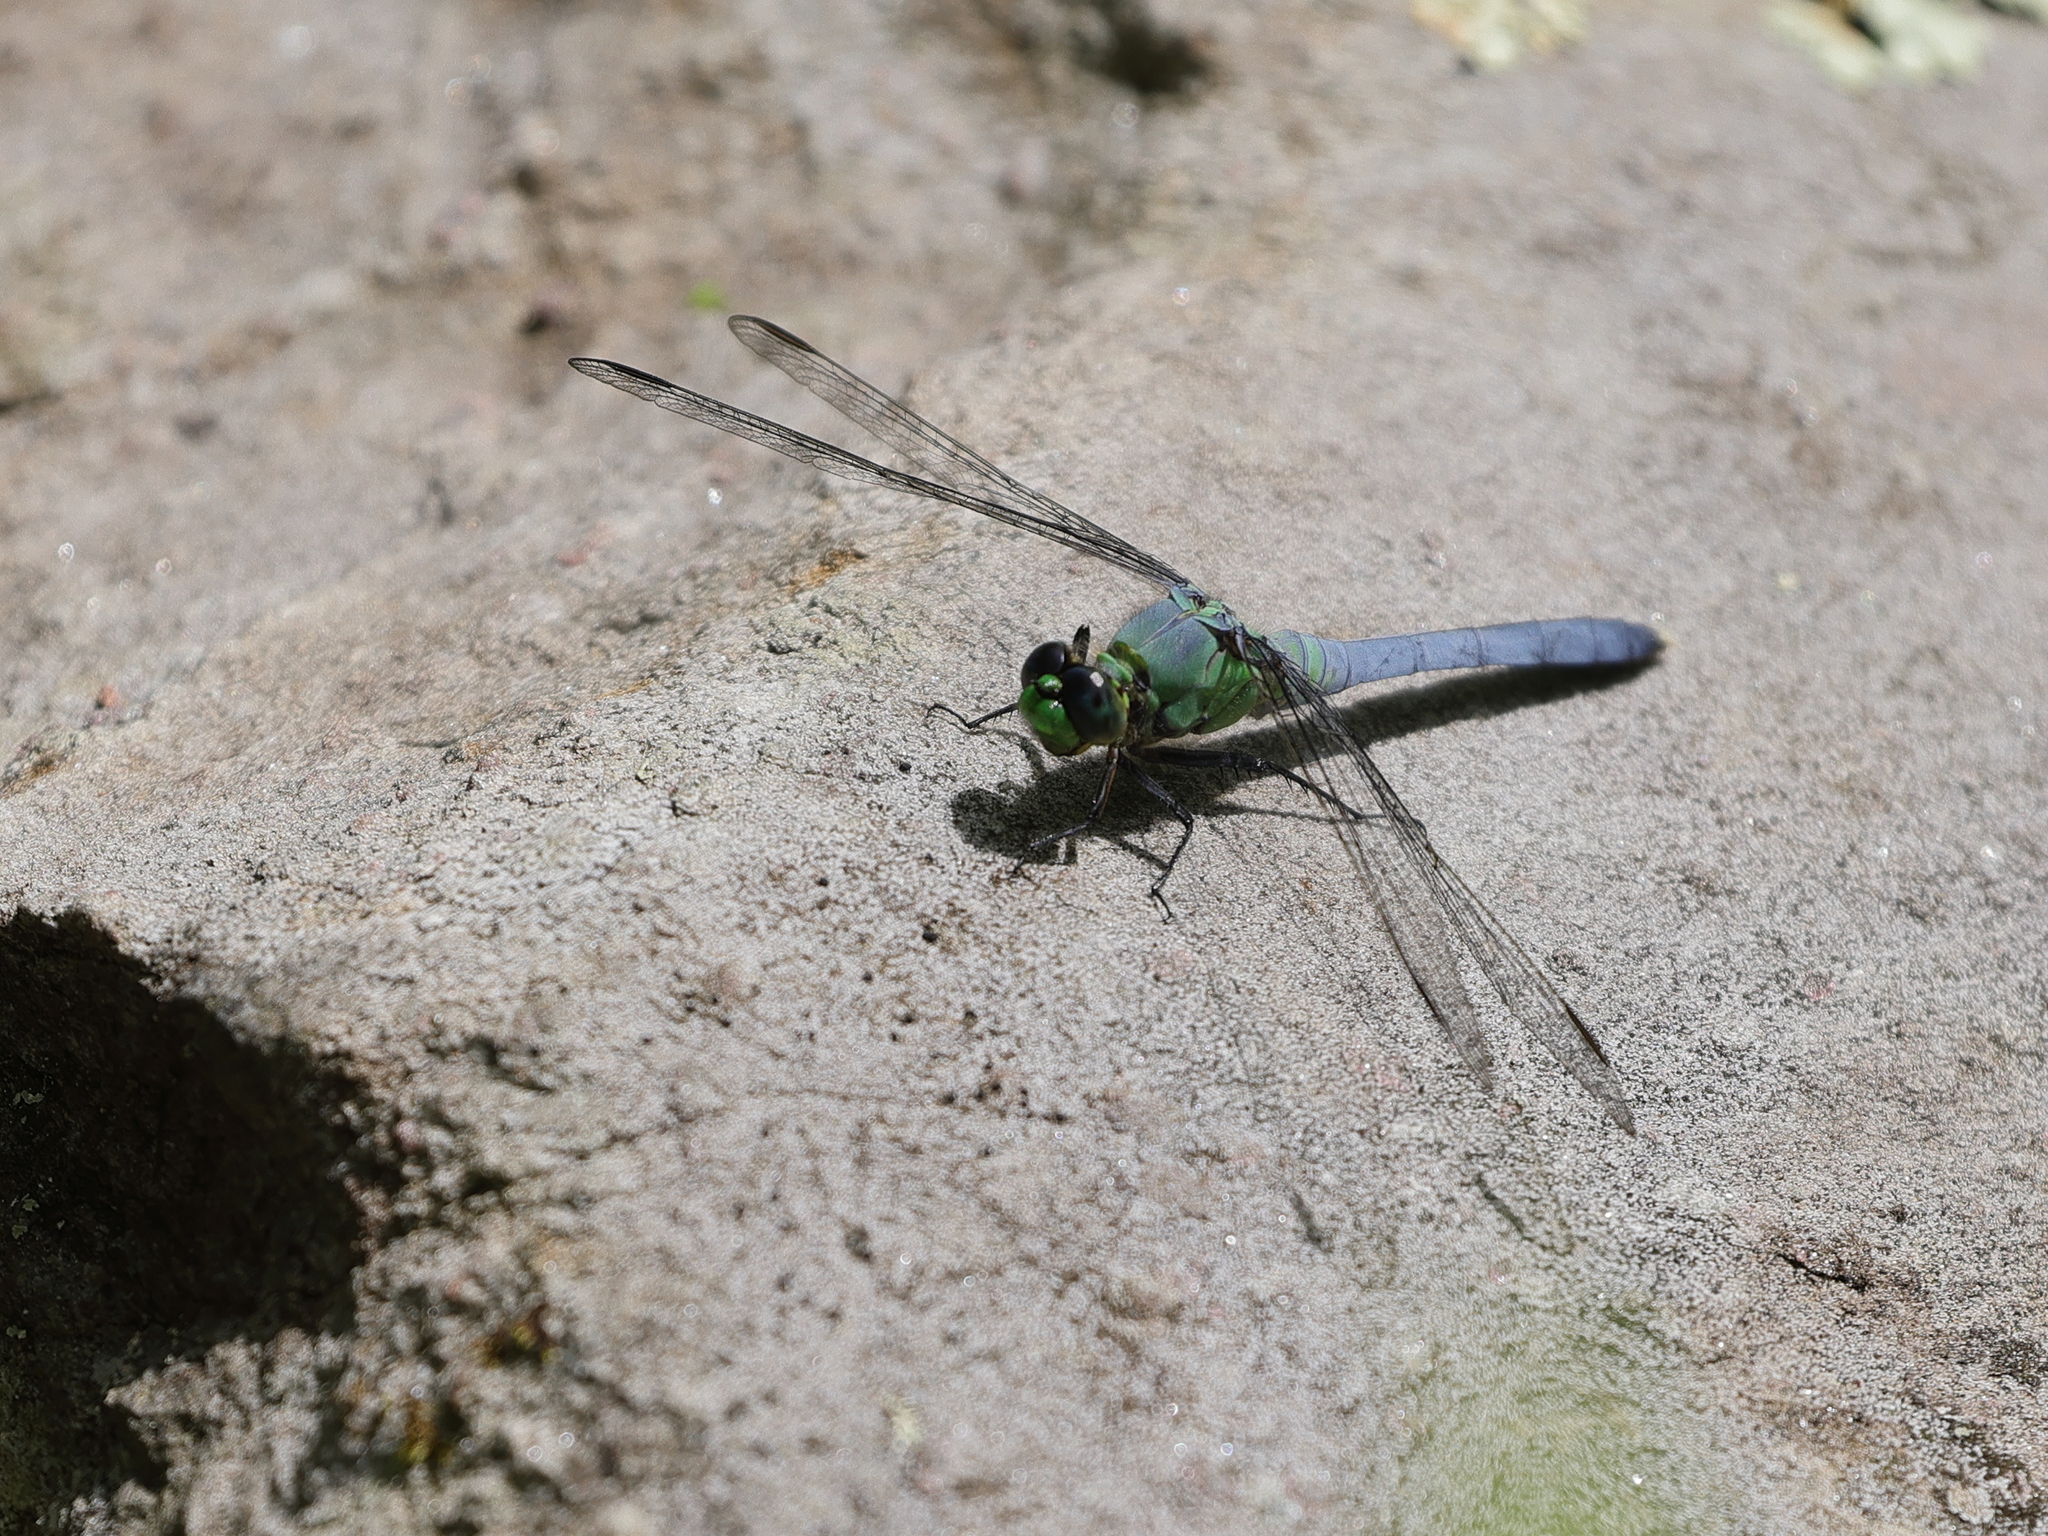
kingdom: Animalia
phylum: Arthropoda
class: Insecta
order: Odonata
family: Libellulidae
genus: Erythemis
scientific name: Erythemis simplicicollis
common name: Eastern pondhawk
